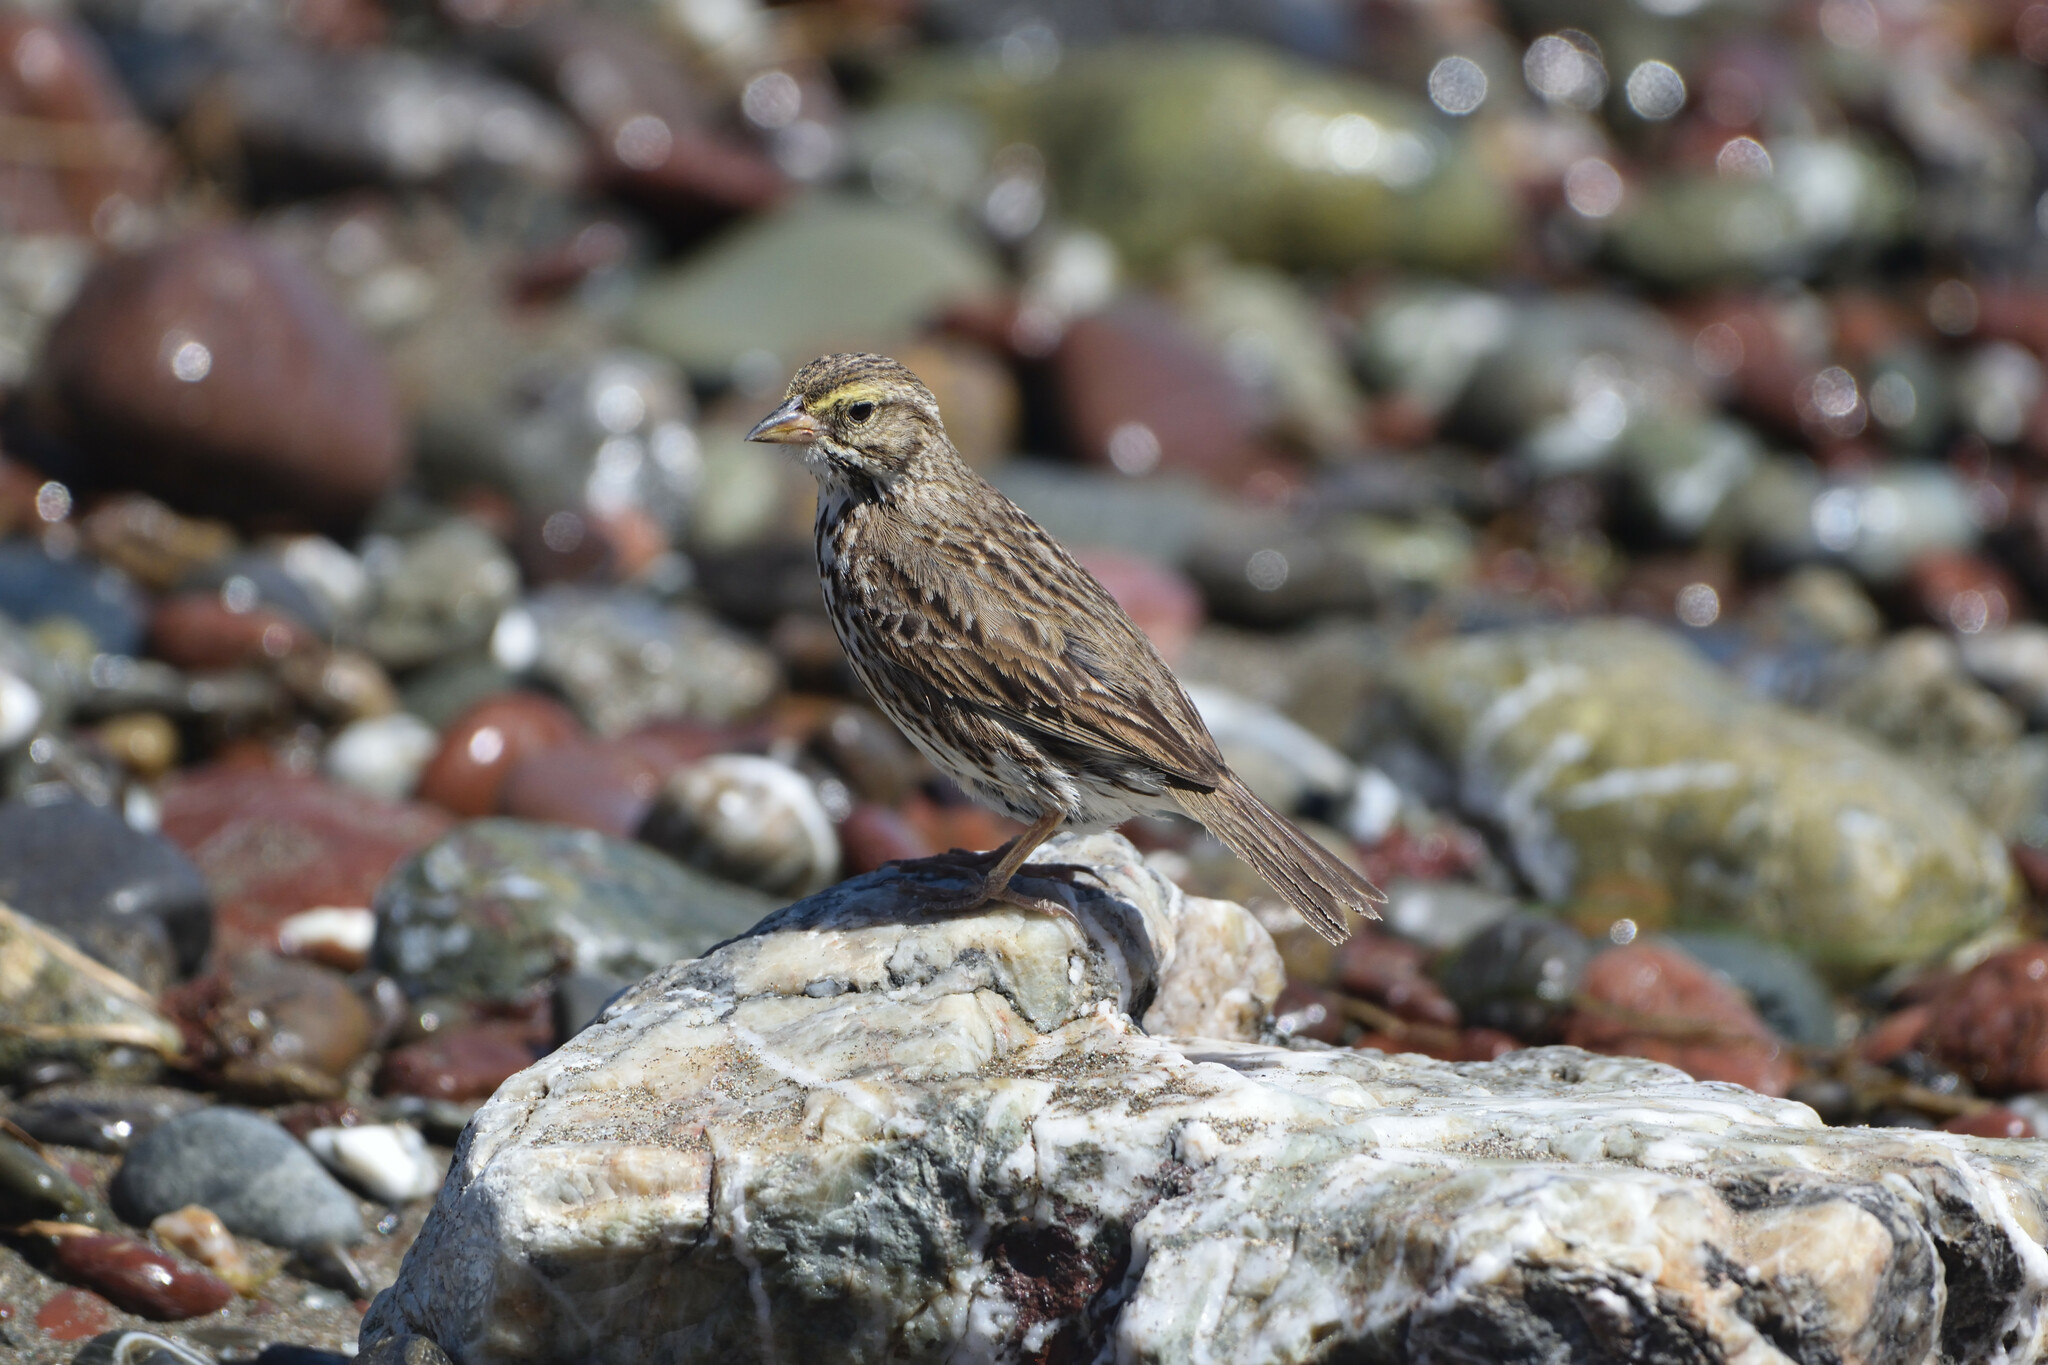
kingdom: Animalia
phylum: Chordata
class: Aves
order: Passeriformes
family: Passerellidae
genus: Passerculus
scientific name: Passerculus sandwichensis
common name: Savannah sparrow
